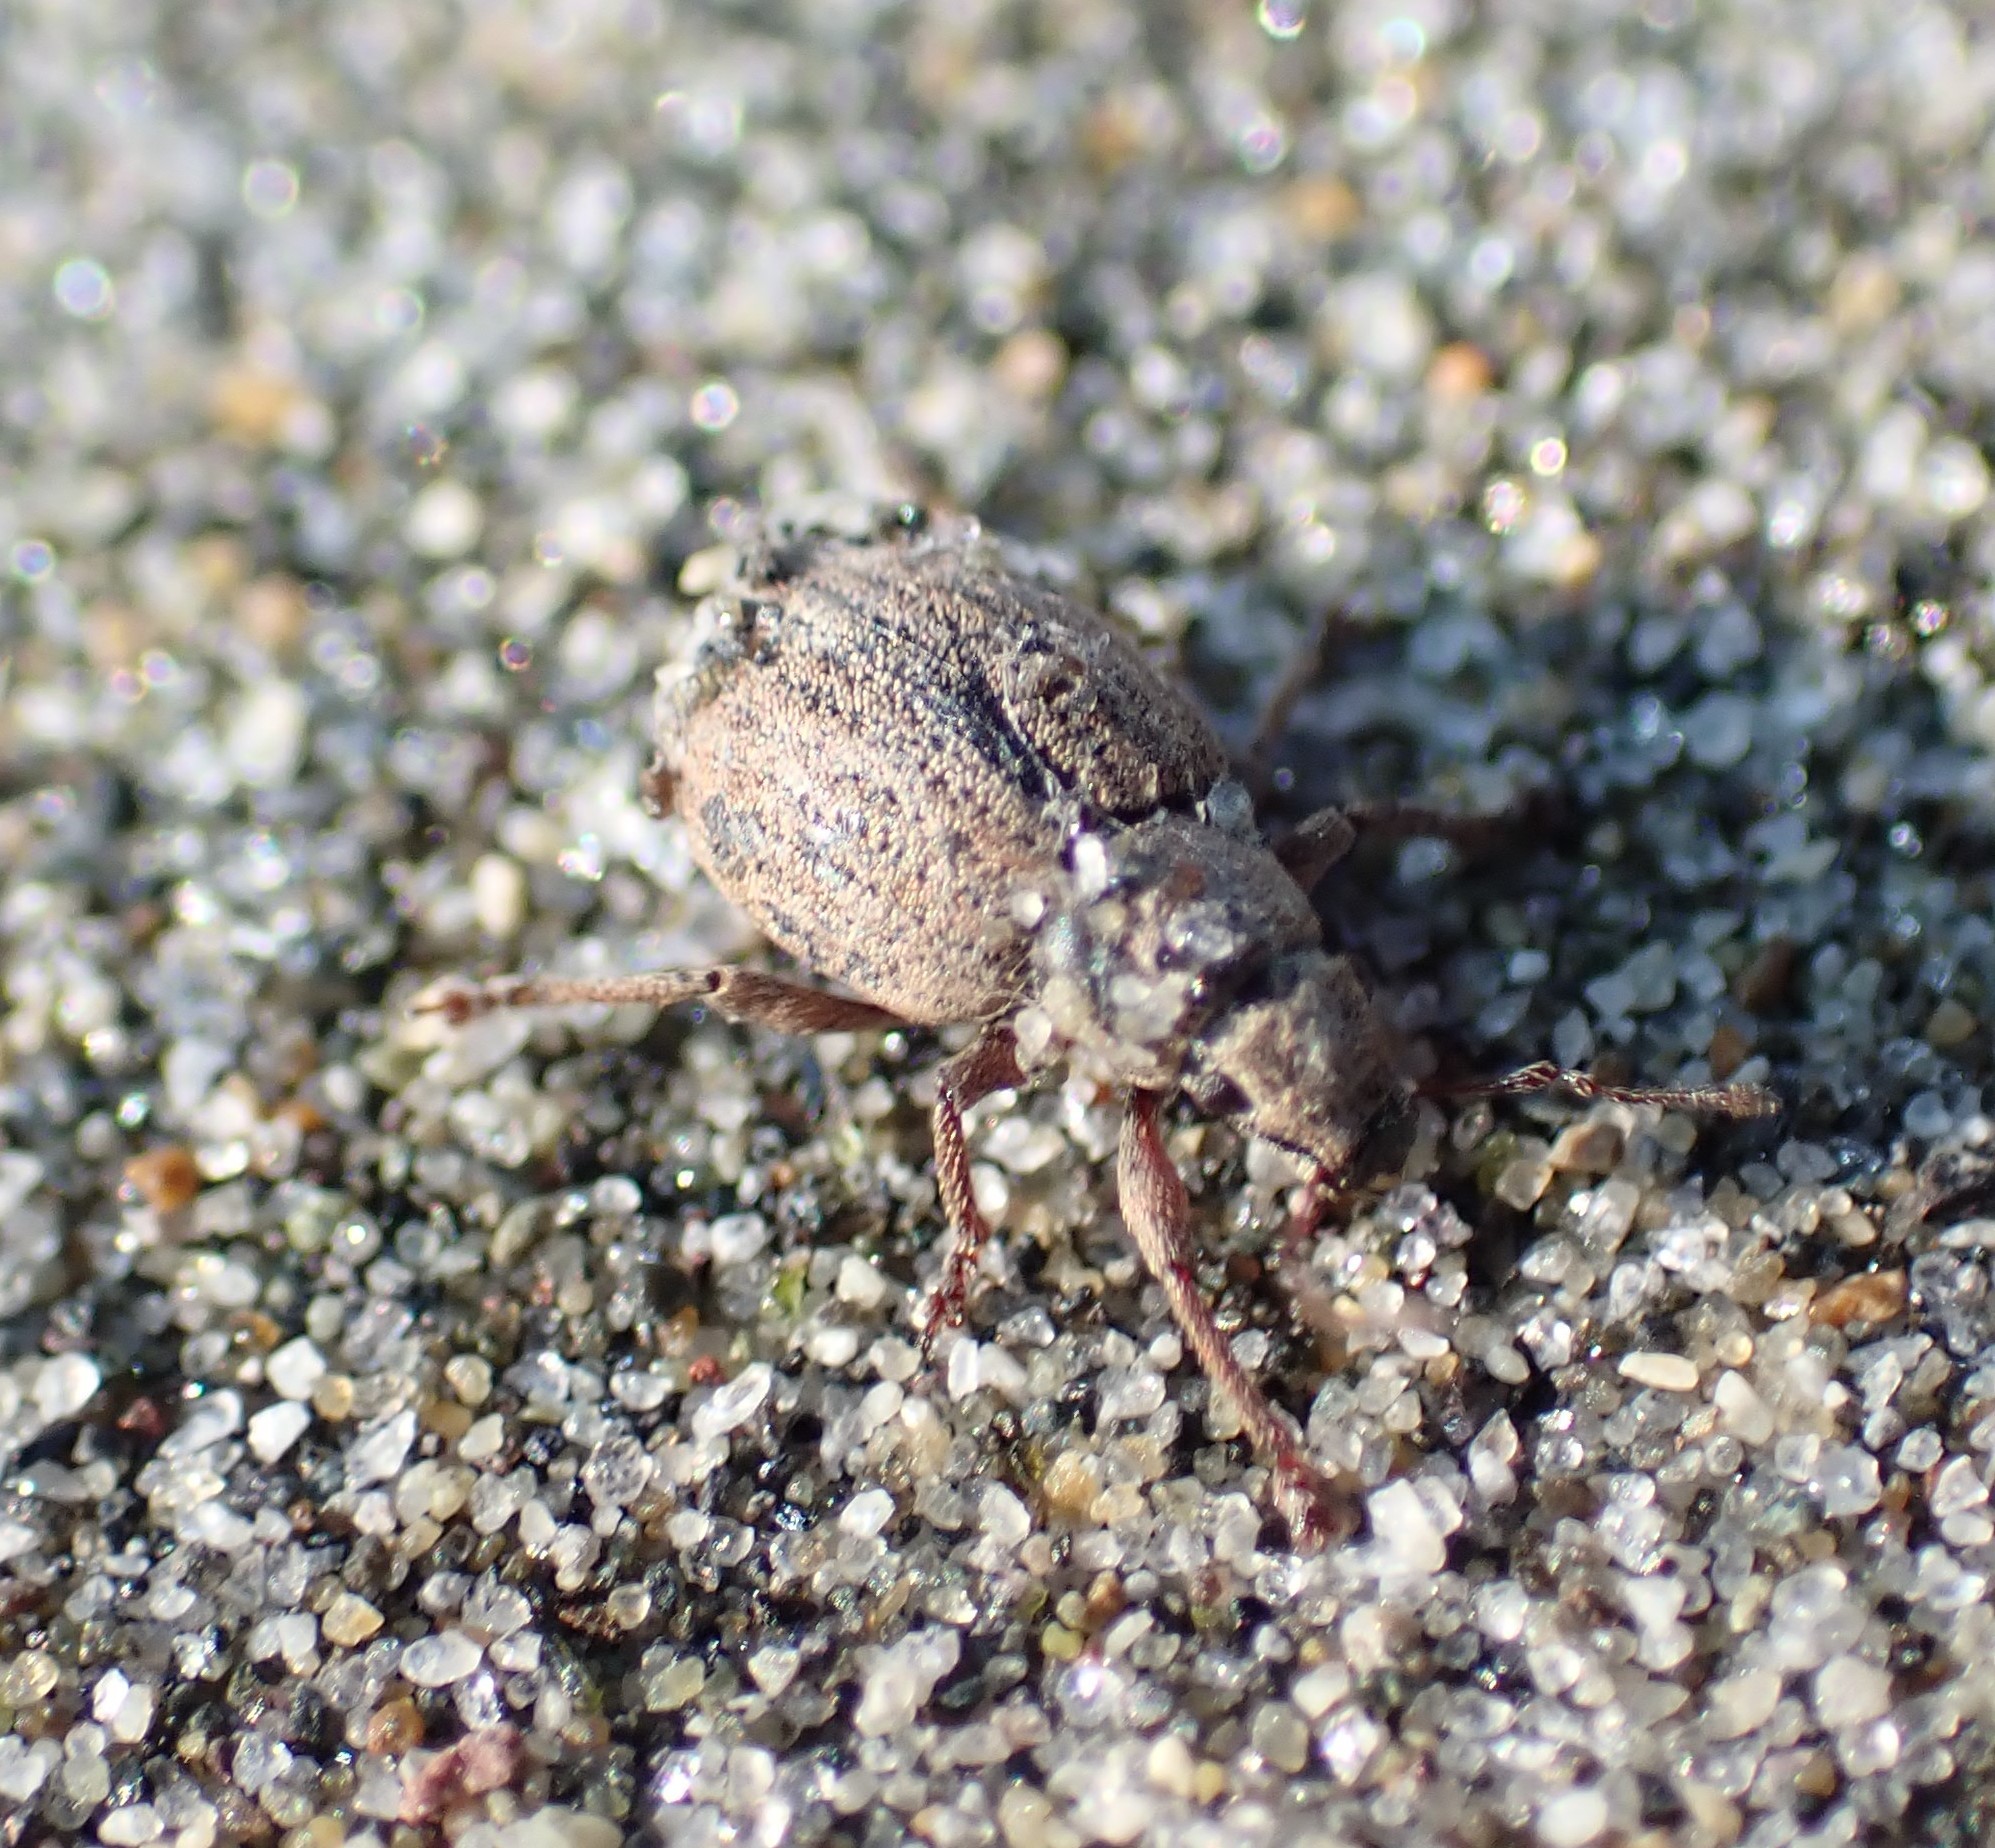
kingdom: Animalia
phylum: Arthropoda
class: Insecta
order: Coleoptera
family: Curculionidae
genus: Strophosoma
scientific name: Strophosoma melanogrammum
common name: Weevil
